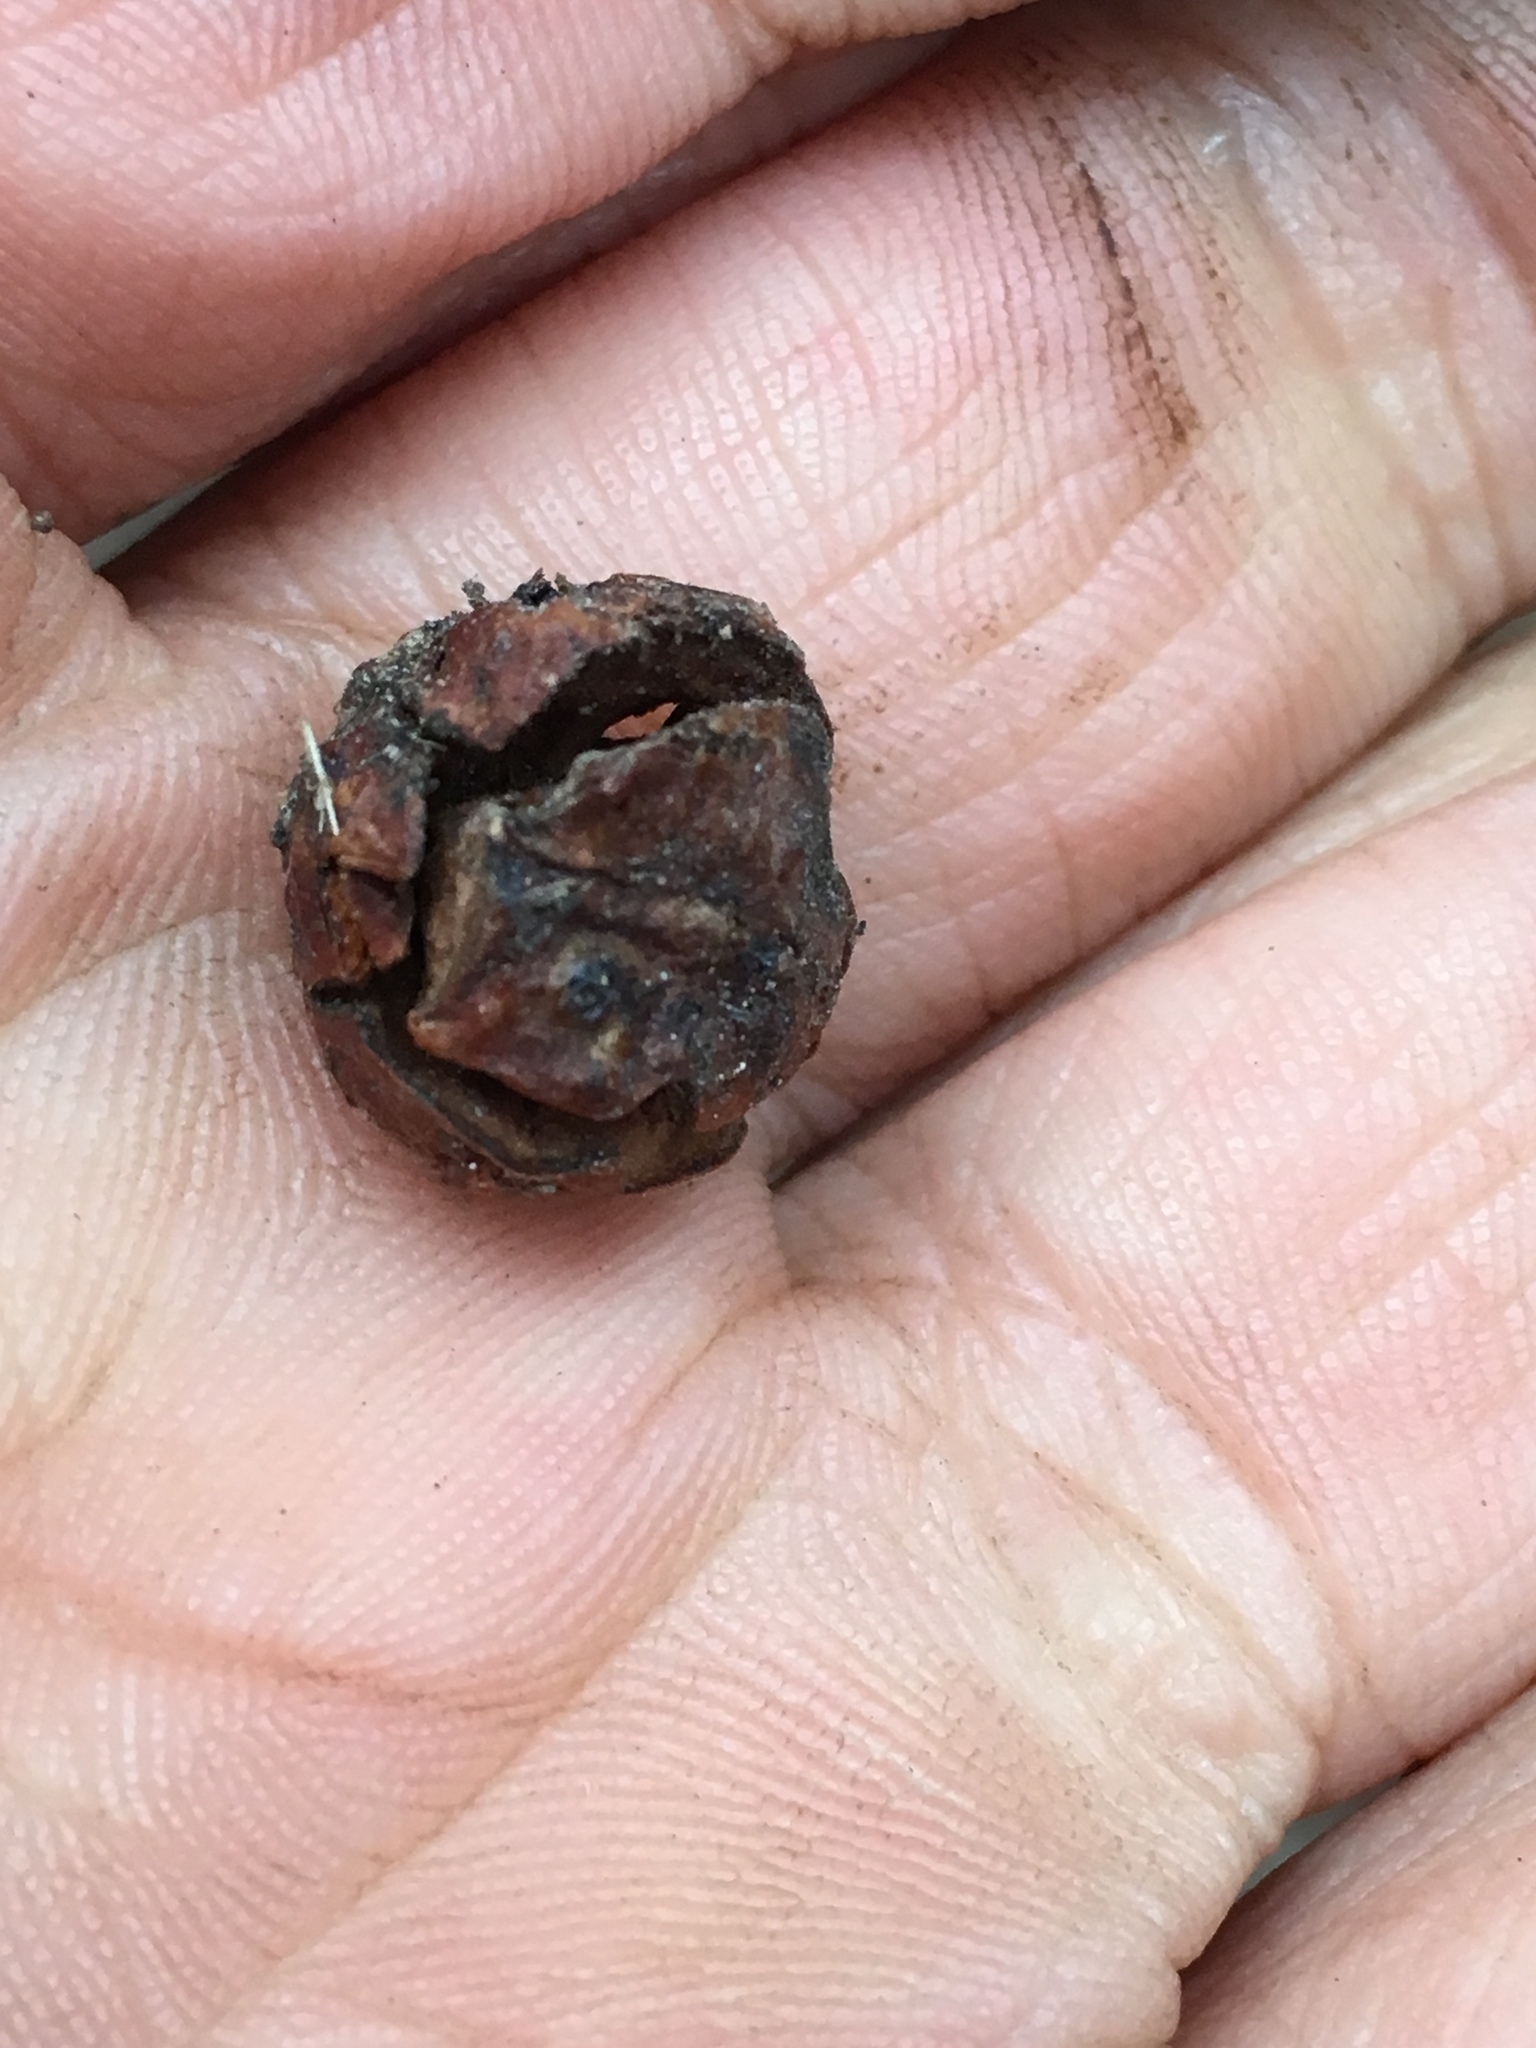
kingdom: Plantae
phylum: Tracheophyta
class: Pinopsida
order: Pinales
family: Cupressaceae
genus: Xanthocyparis
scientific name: Xanthocyparis nootkatensis
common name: Nootka cypress
